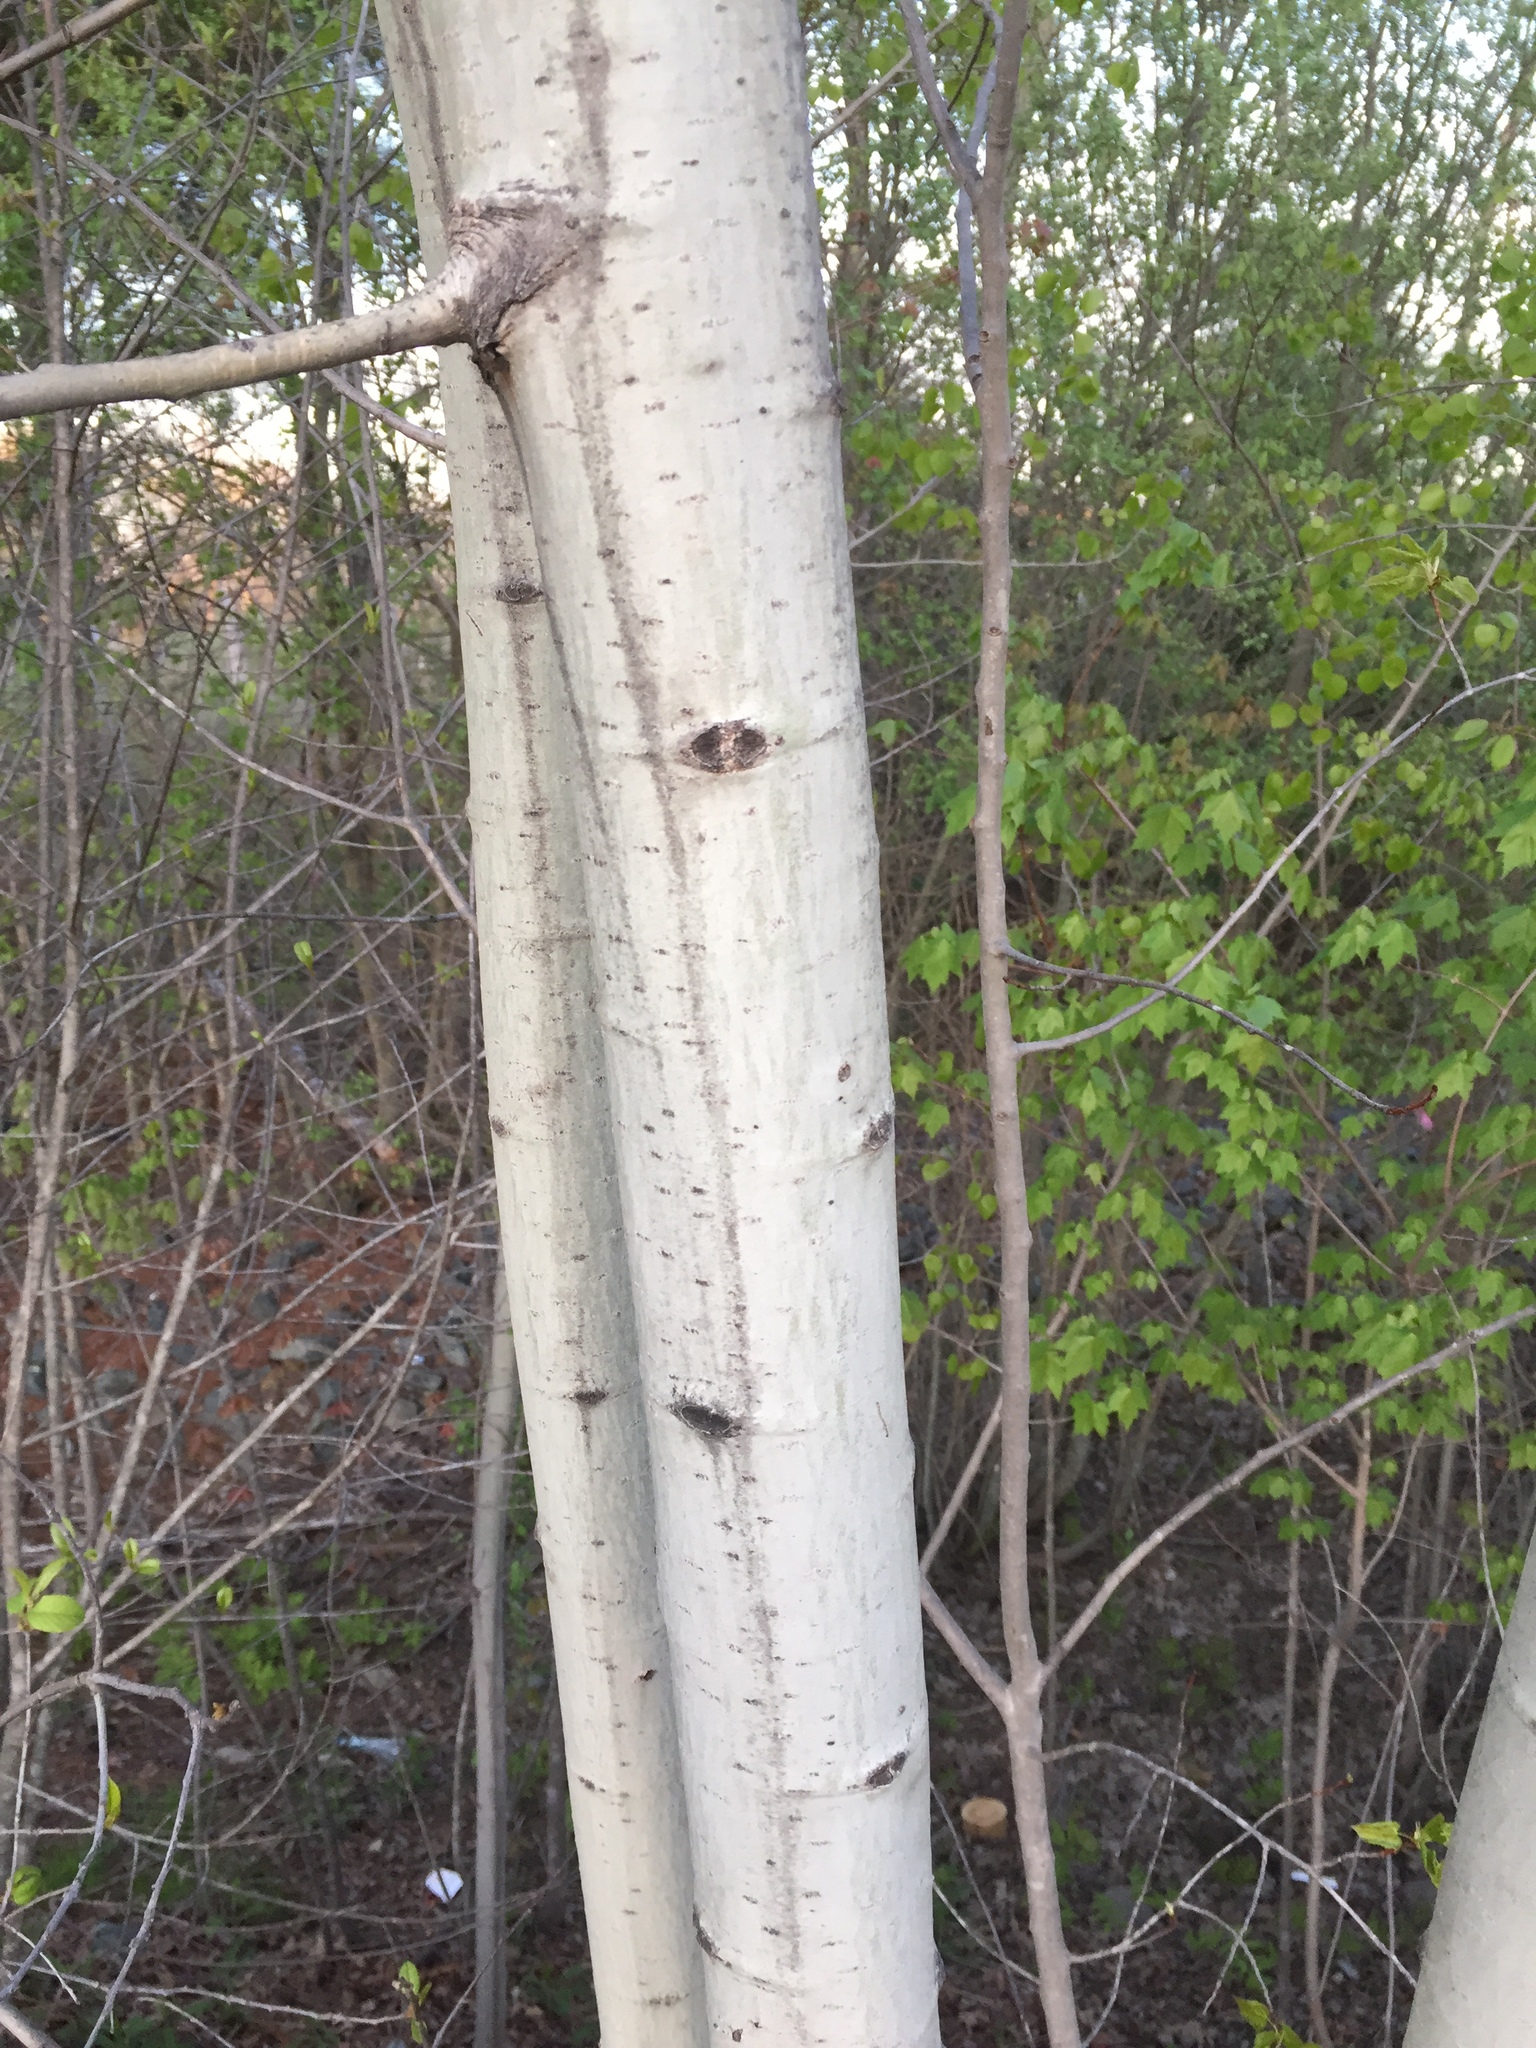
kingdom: Plantae
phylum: Tracheophyta
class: Magnoliopsida
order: Malpighiales
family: Salicaceae
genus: Populus
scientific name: Populus tremuloides
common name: Quaking aspen
